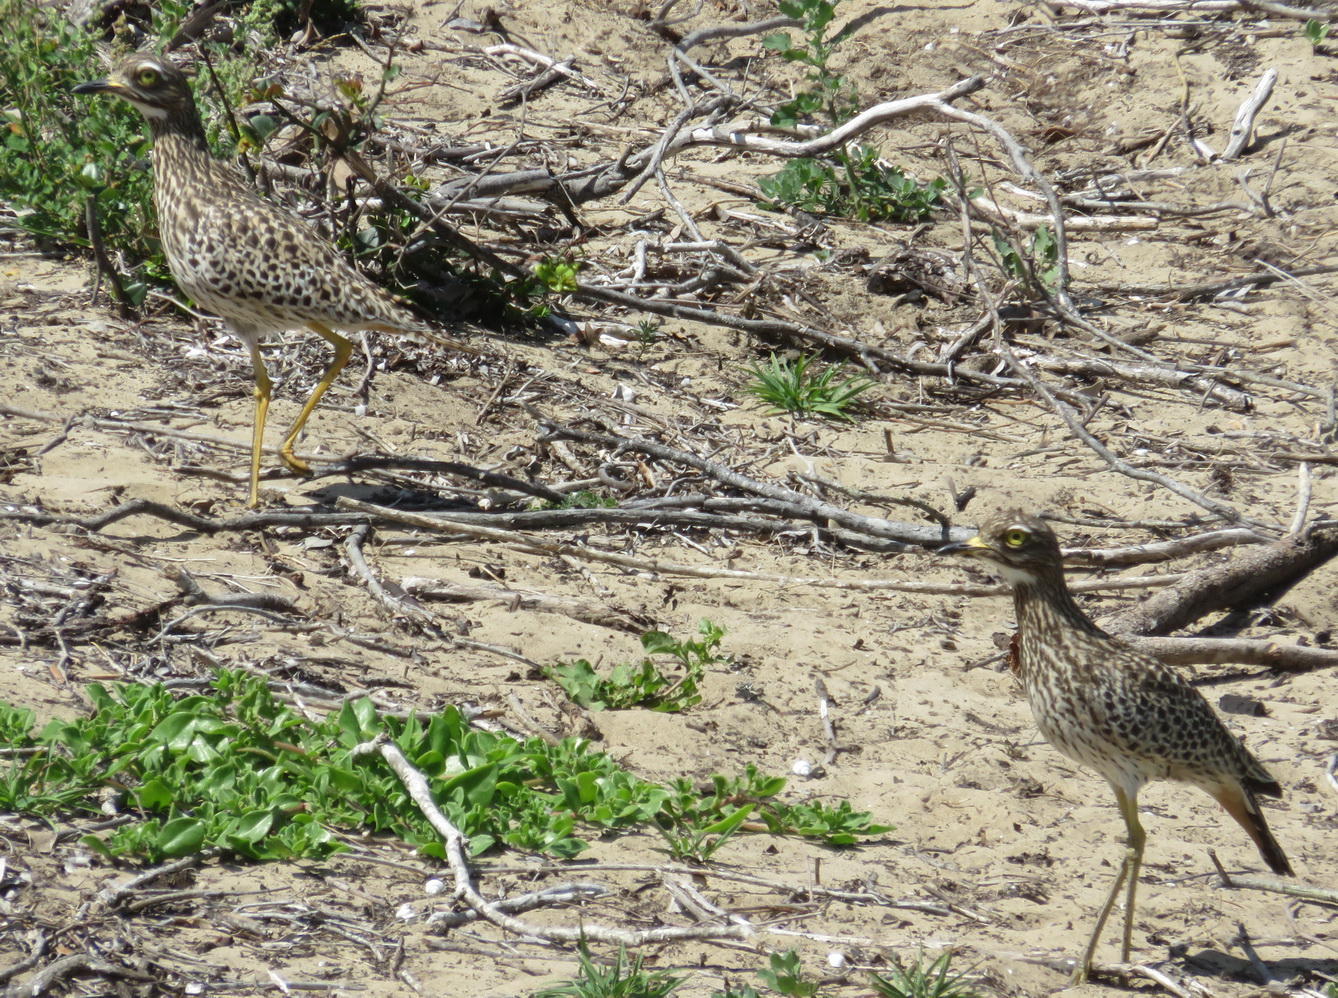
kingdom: Animalia
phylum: Chordata
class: Aves
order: Charadriiformes
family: Burhinidae
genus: Burhinus
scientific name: Burhinus capensis
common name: Spotted thick-knee
